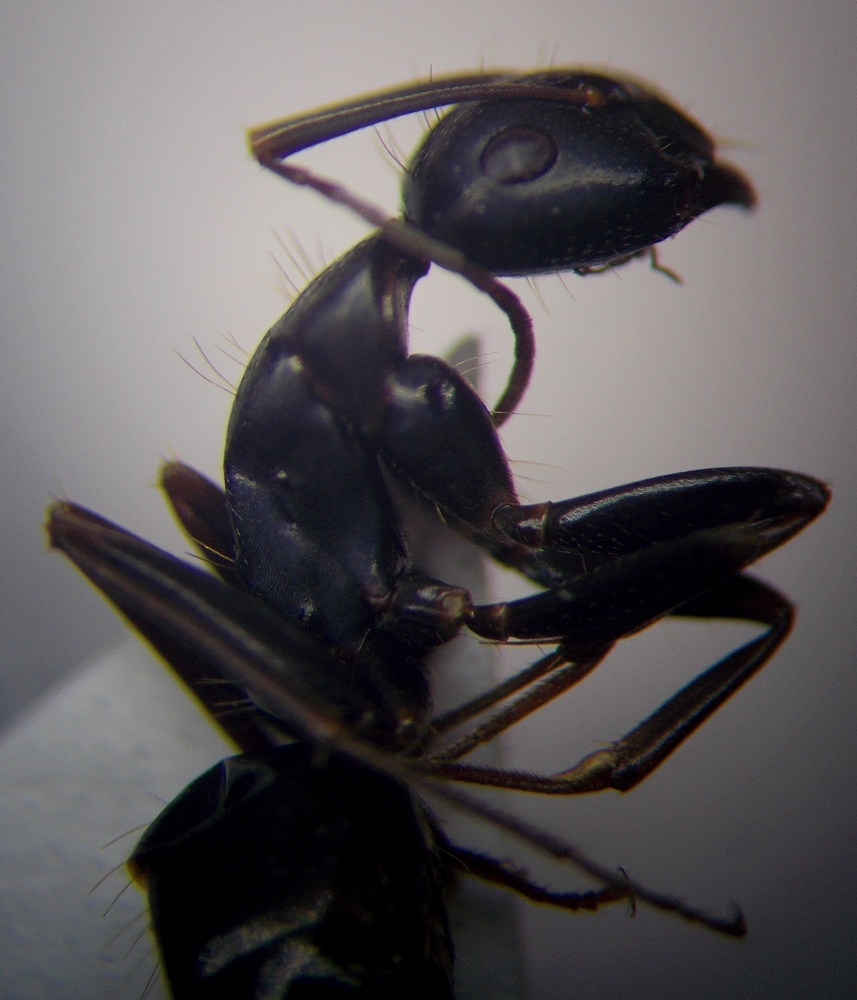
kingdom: Animalia
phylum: Arthropoda
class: Insecta
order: Hymenoptera
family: Formicidae
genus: Camponotus
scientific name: Camponotus aethiops
